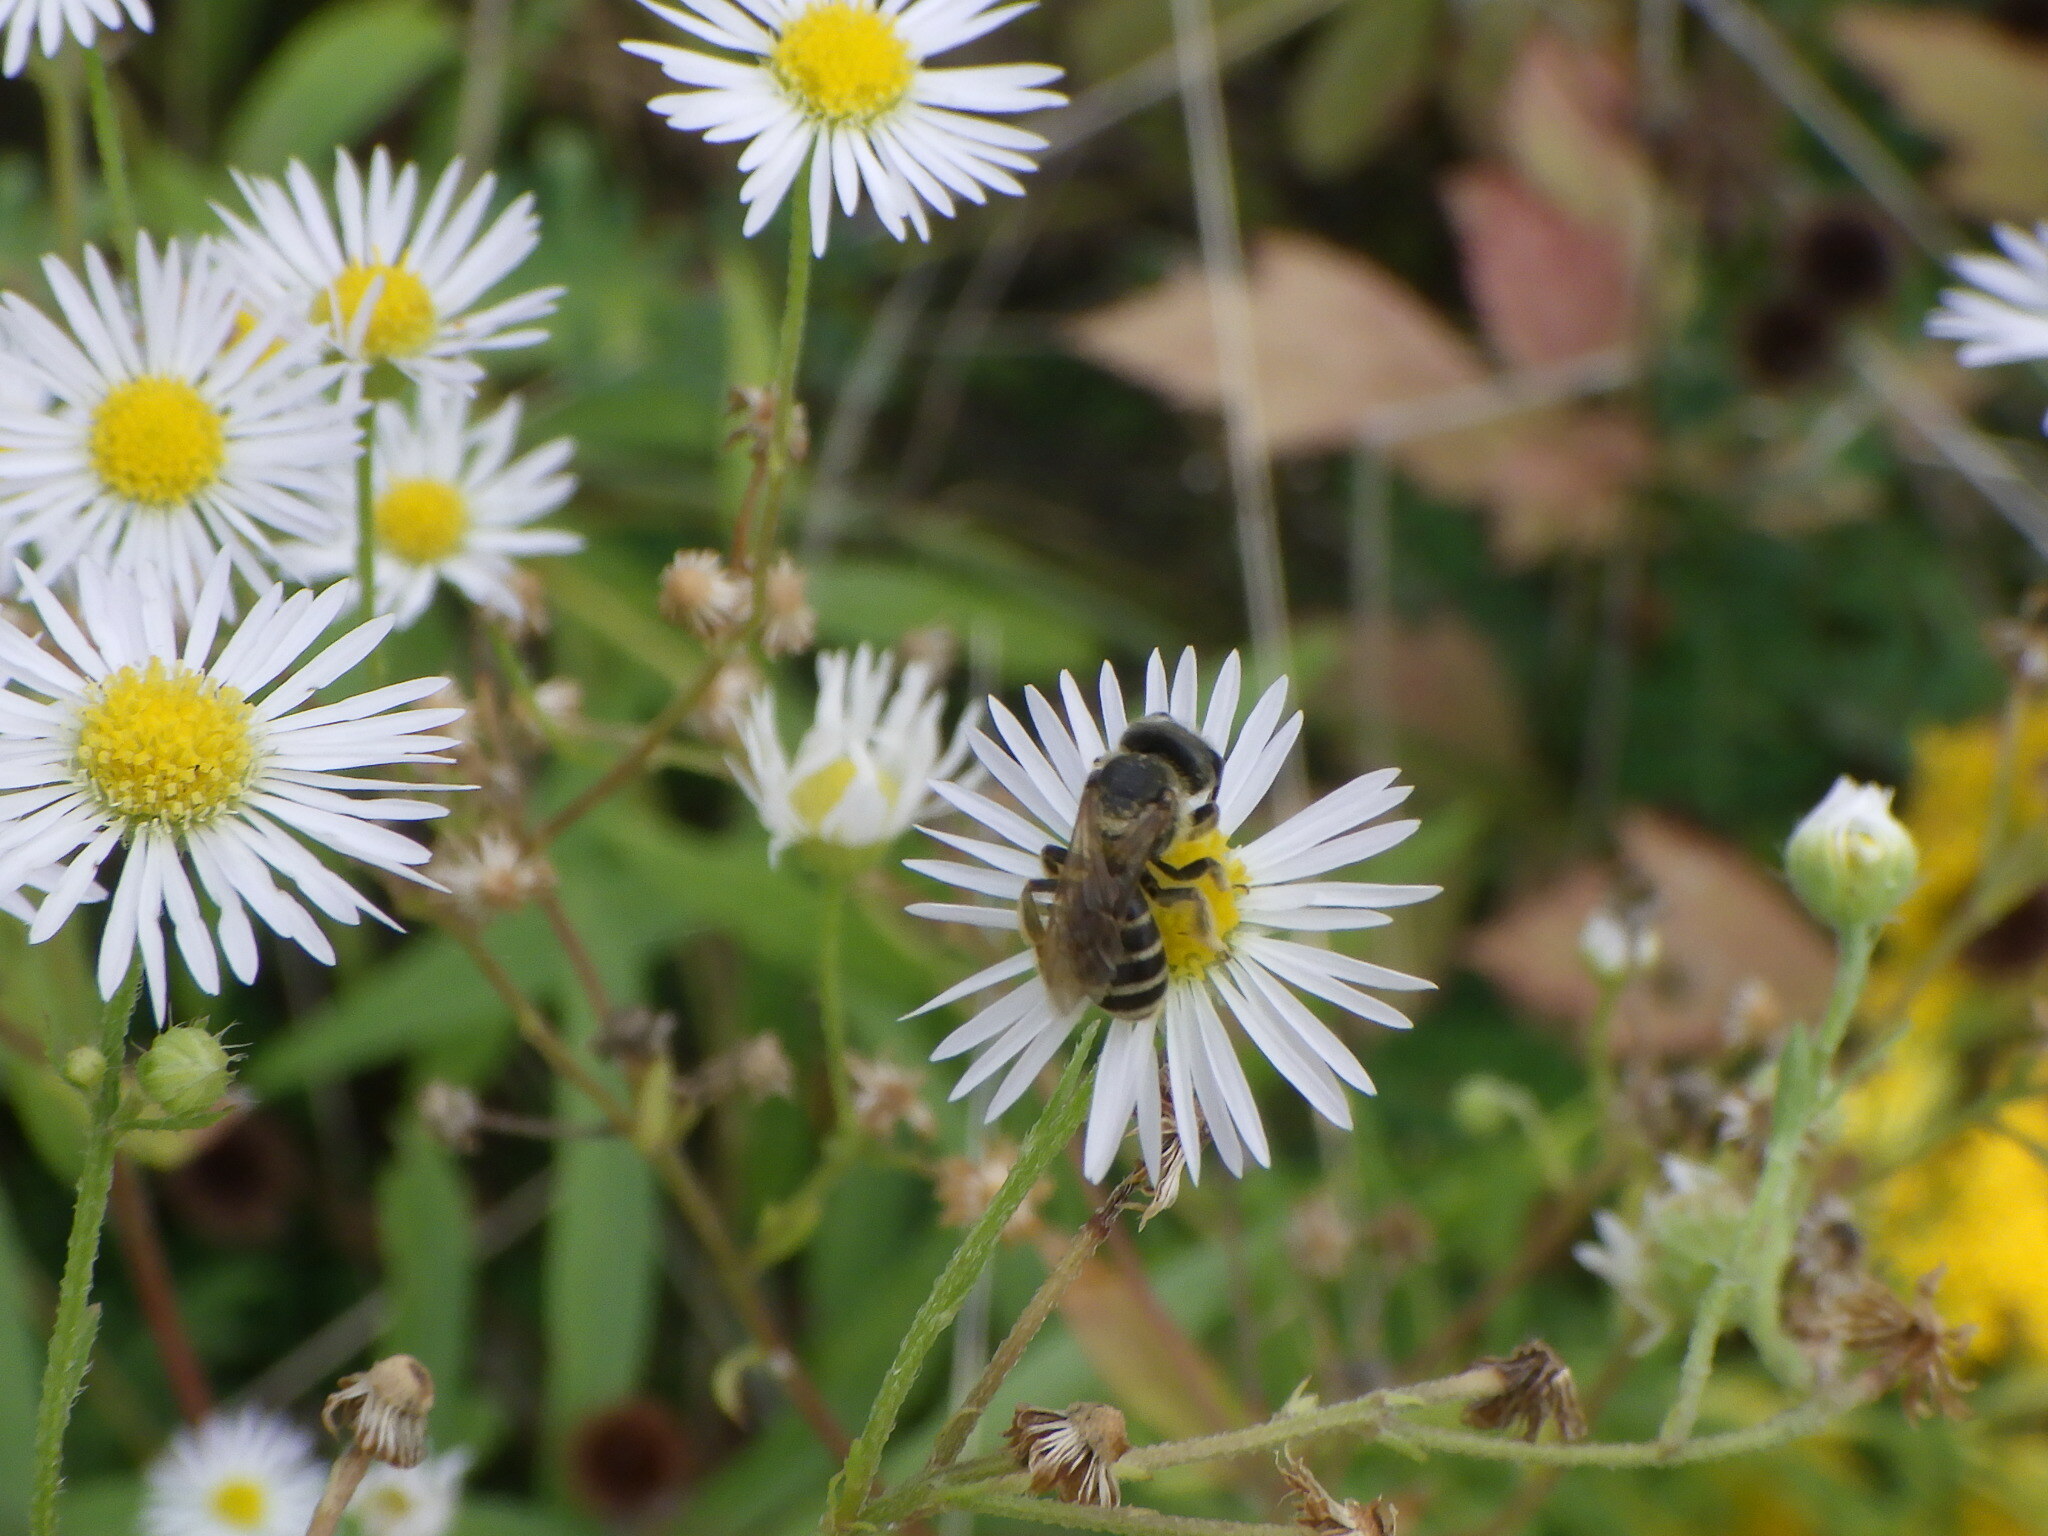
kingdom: Animalia
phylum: Arthropoda
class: Insecta
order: Hymenoptera
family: Halictidae
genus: Halictus
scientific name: Halictus ligatus
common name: Ligated furrow bee
